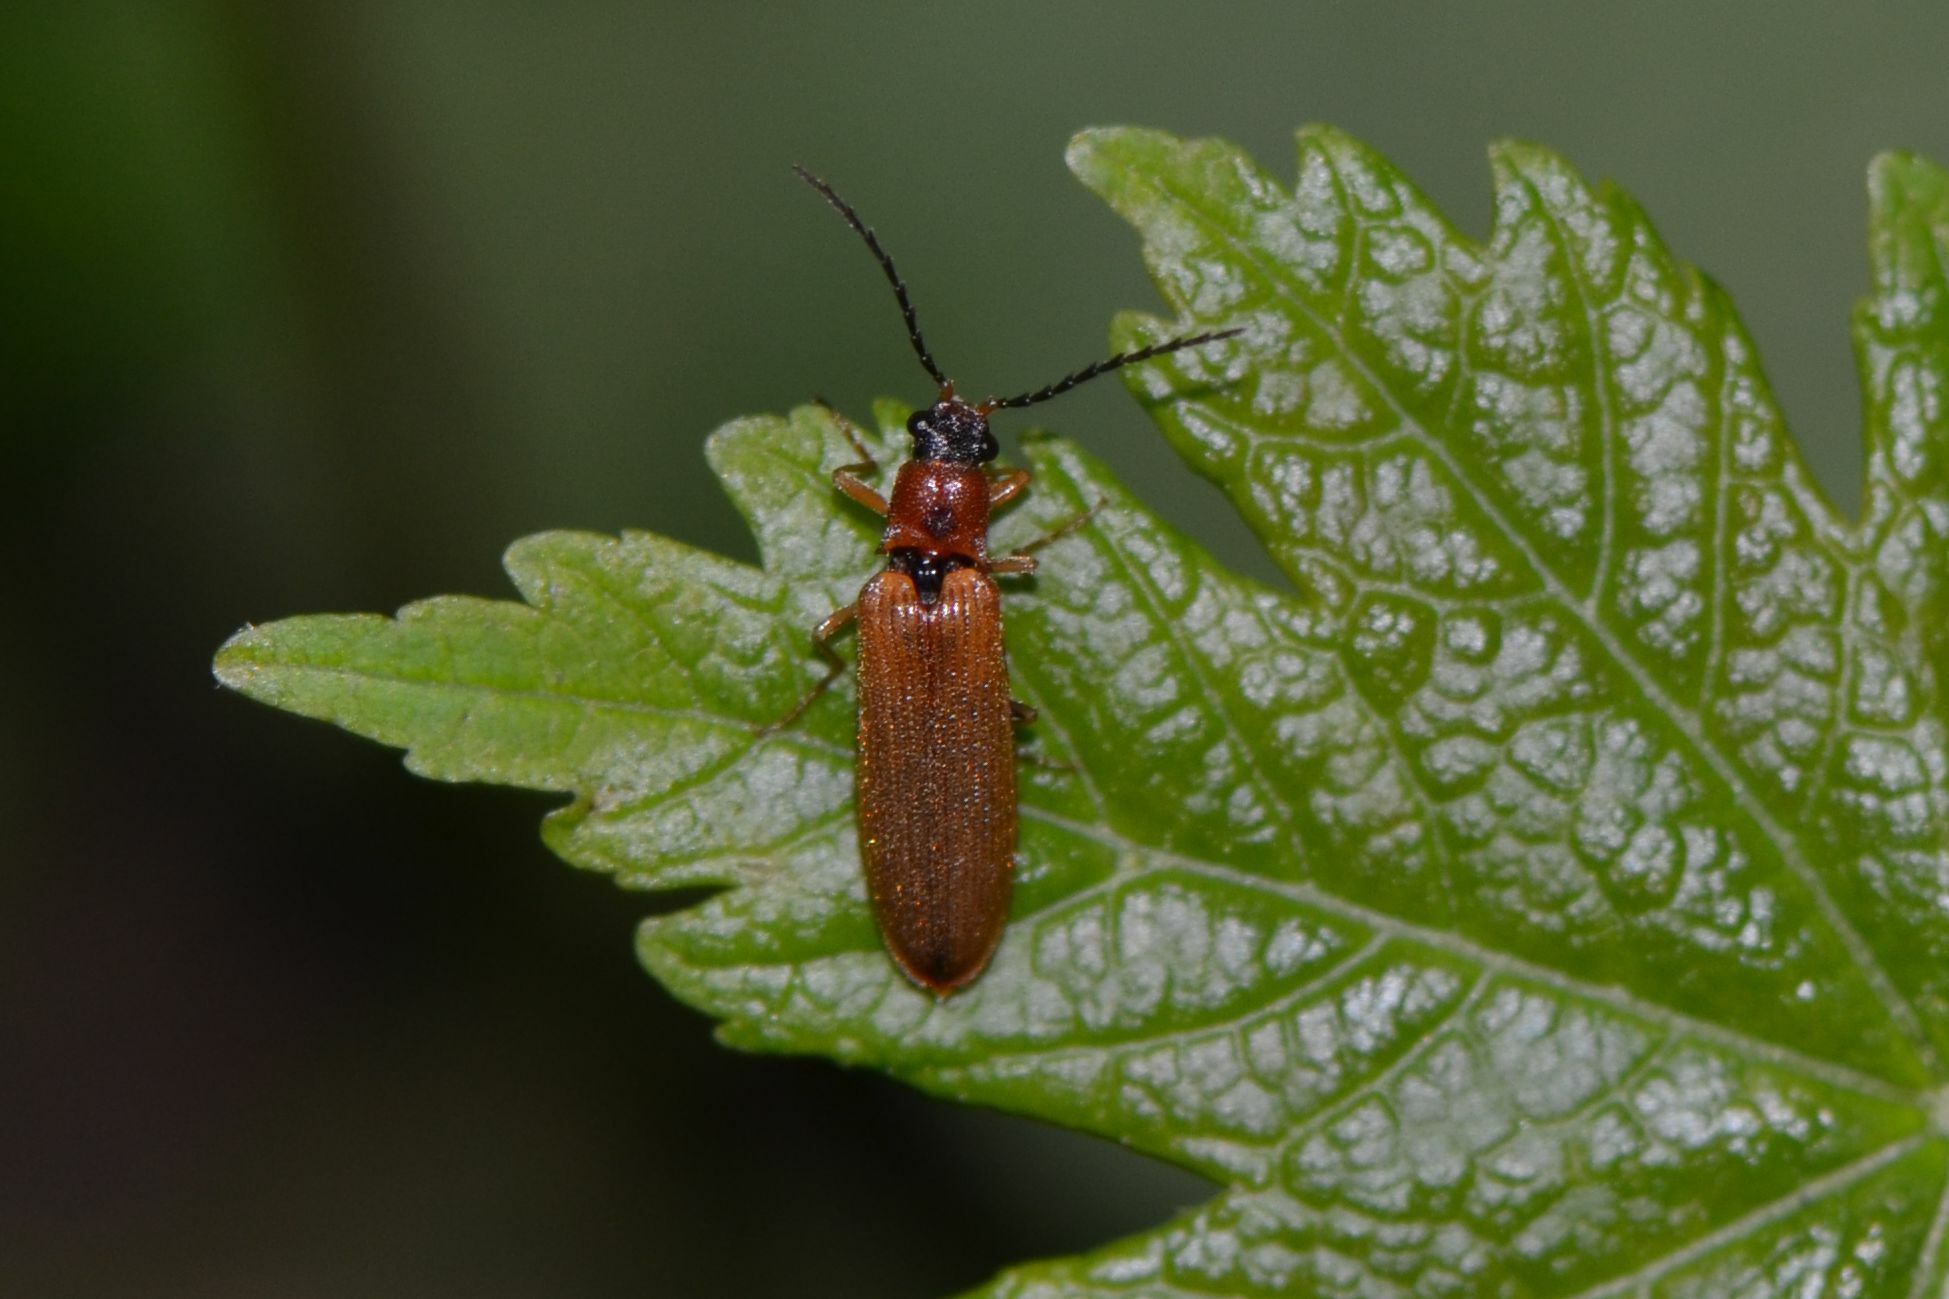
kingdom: Animalia
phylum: Arthropoda
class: Insecta
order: Coleoptera
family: Elateridae
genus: Denticollis
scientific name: Denticollis linearis
